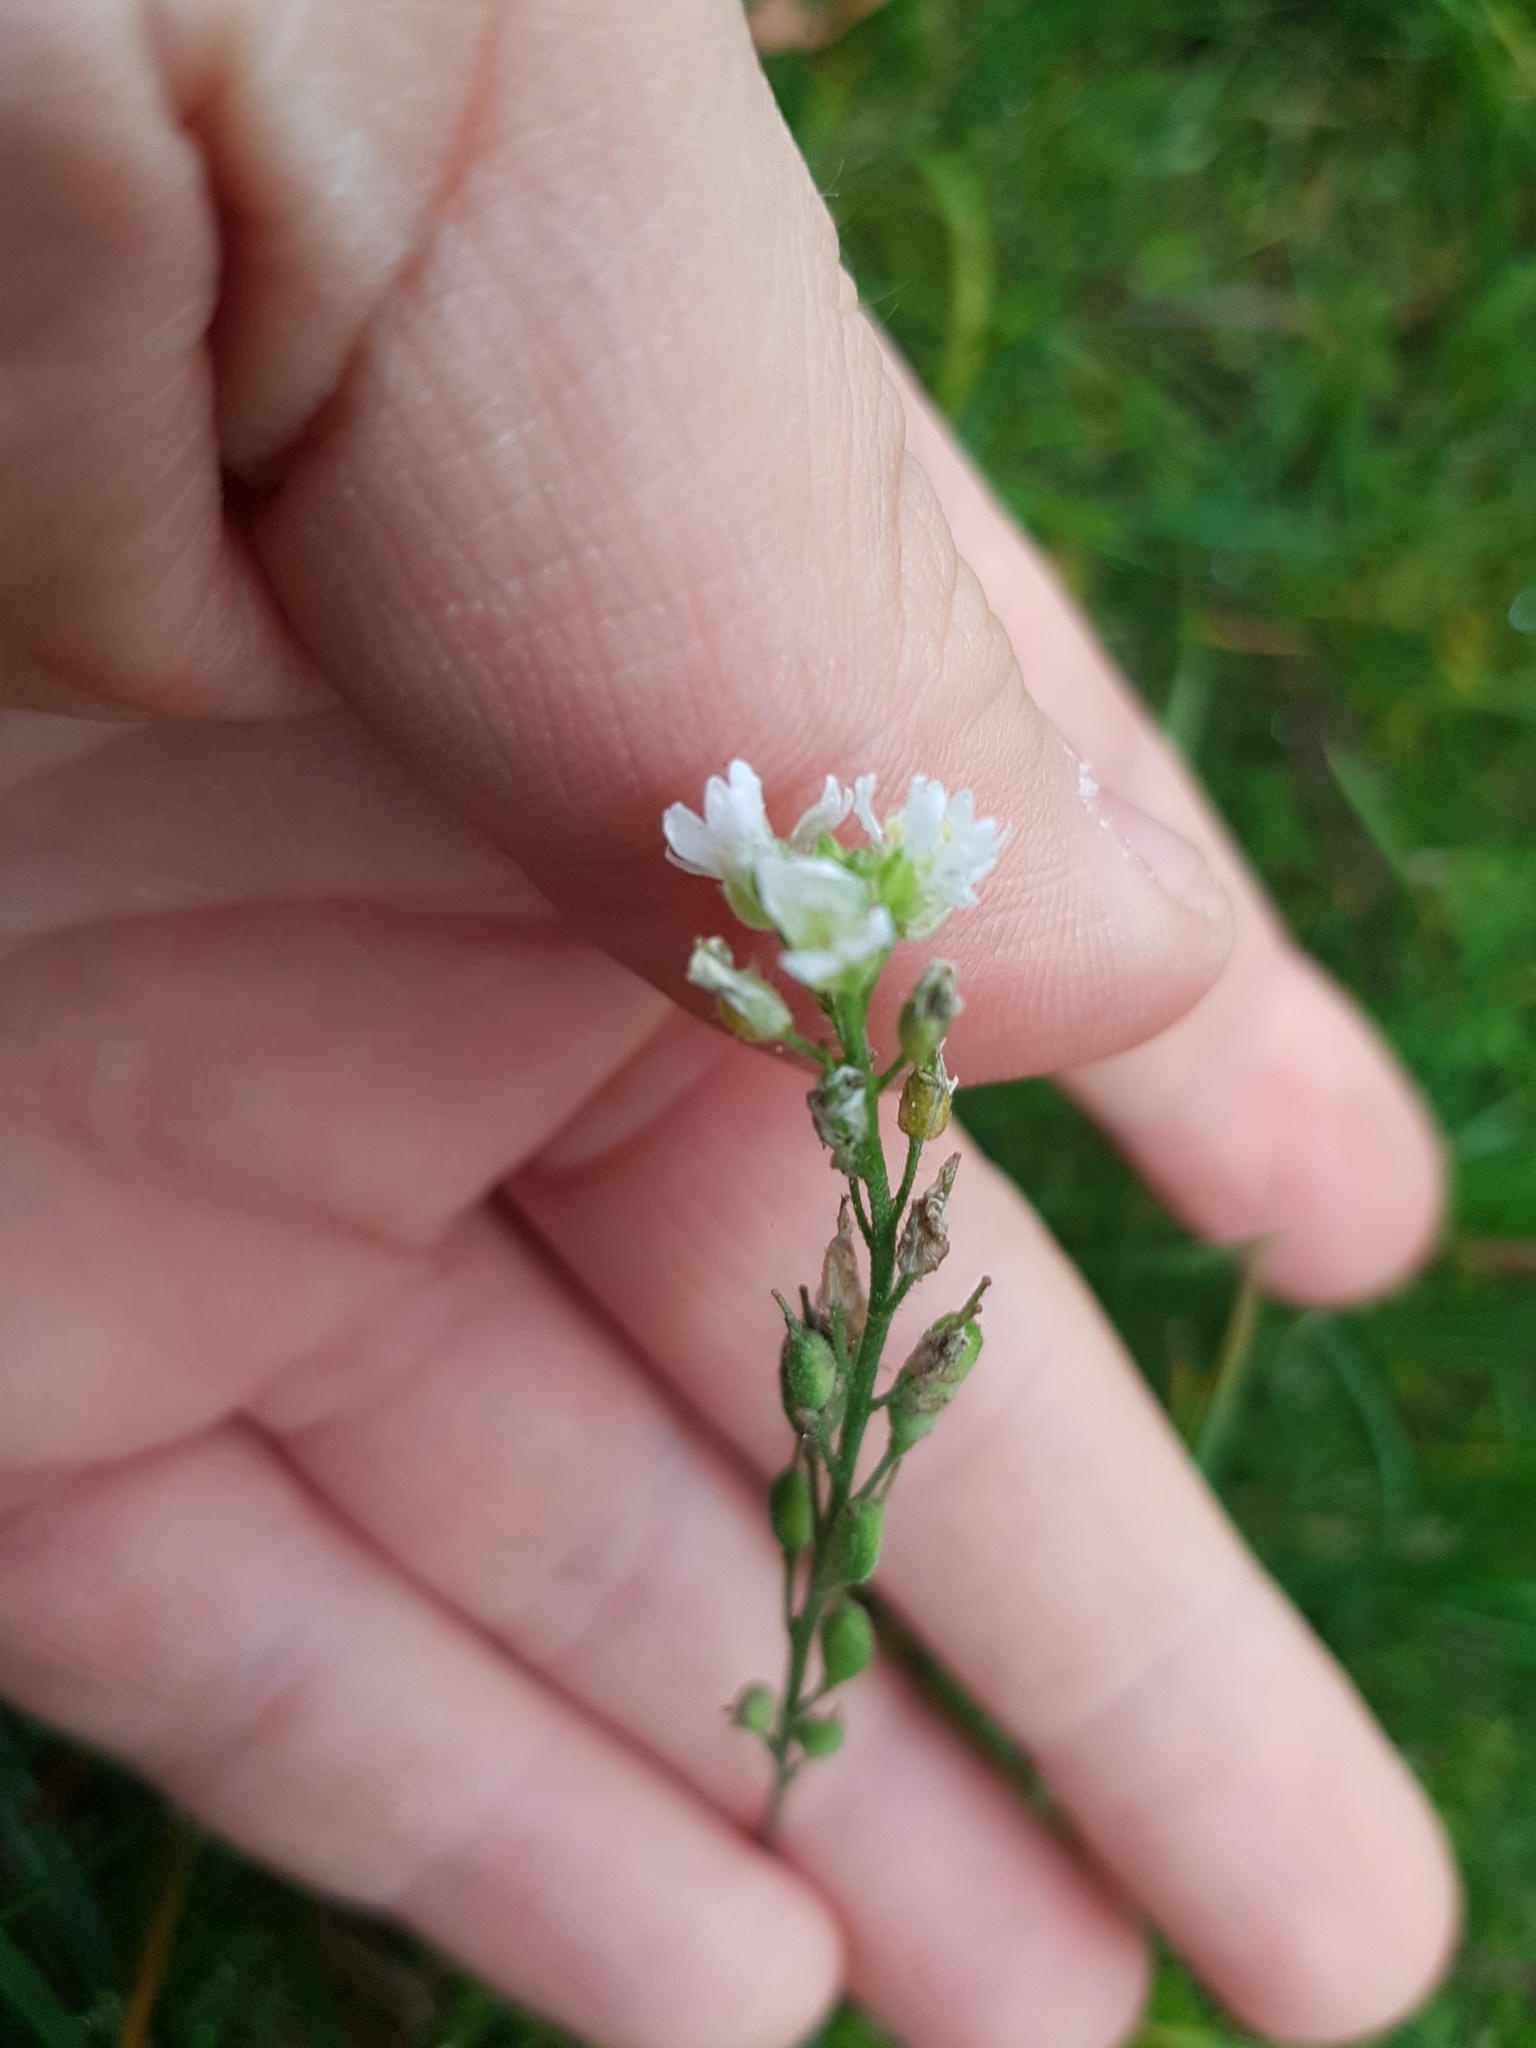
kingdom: Plantae
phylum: Tracheophyta
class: Magnoliopsida
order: Brassicales
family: Brassicaceae
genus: Berteroa
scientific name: Berteroa incana
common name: Hoary alison
